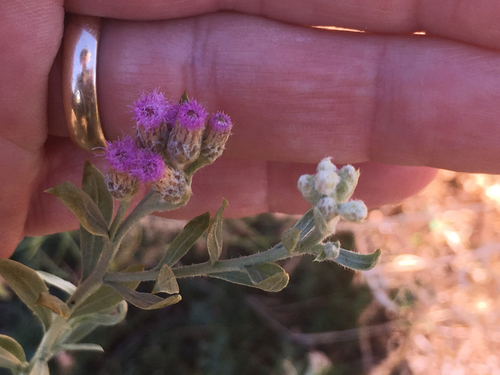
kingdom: Plantae
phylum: Tracheophyta
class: Magnoliopsida
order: Asterales
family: Asteraceae
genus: Pluchea
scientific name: Pluchea sericea
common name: Arrow-weed
